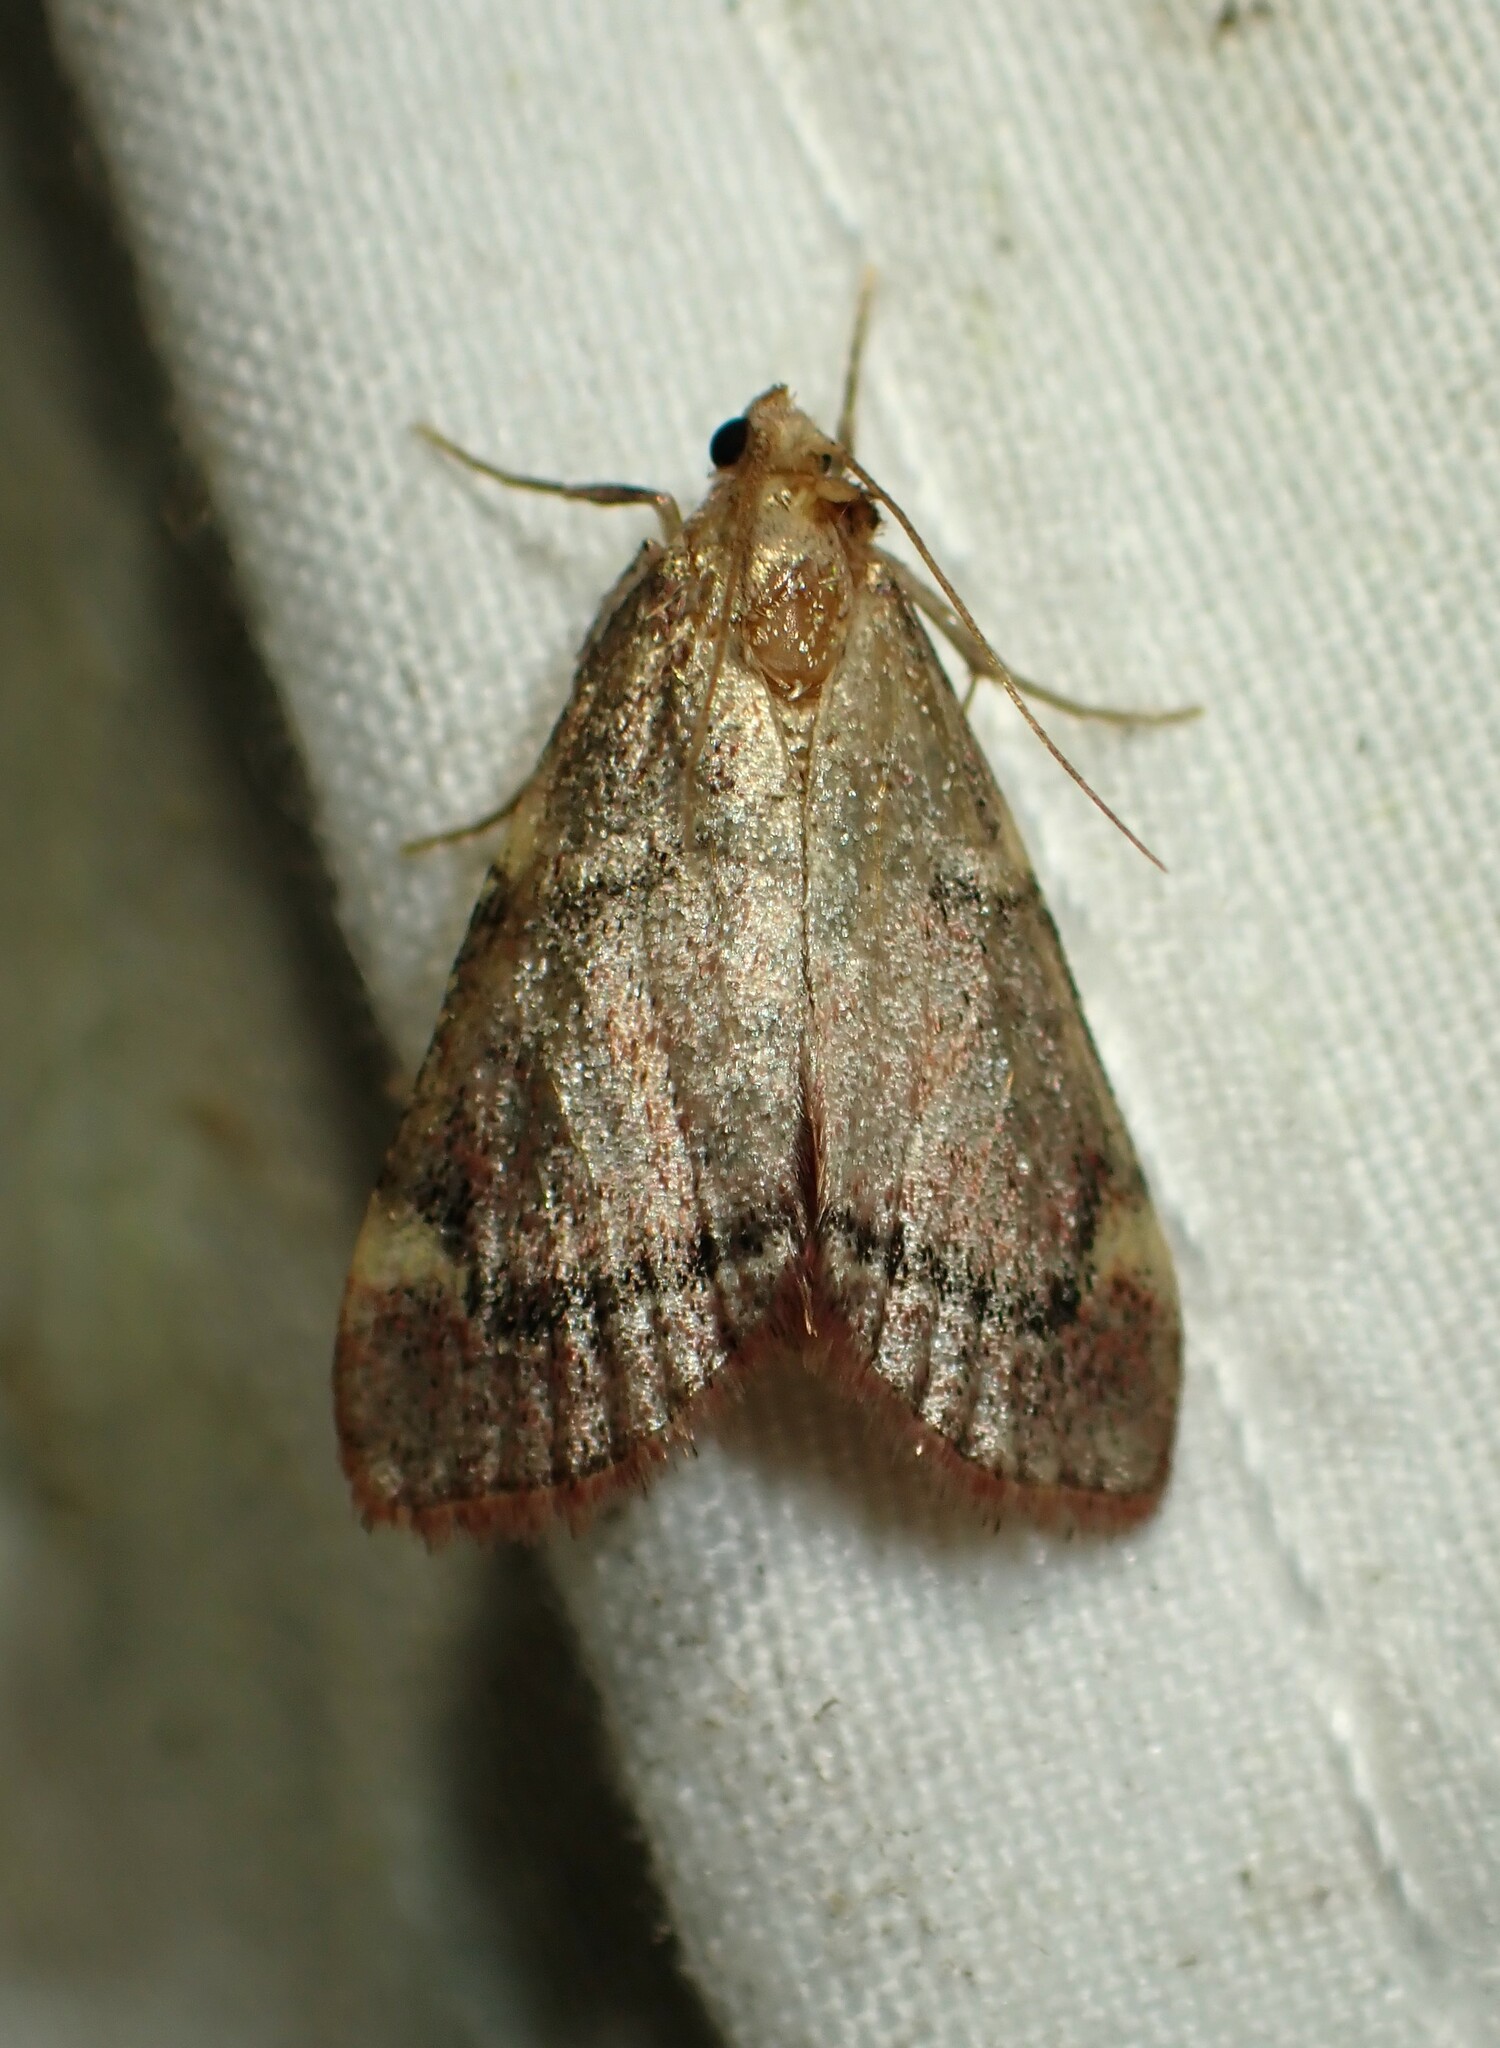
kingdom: Animalia
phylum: Arthropoda
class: Insecta
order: Lepidoptera
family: Pyralidae
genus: Hypsopygia
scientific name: Hypsopygia thymetusalis
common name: Spruce needleworm moth
